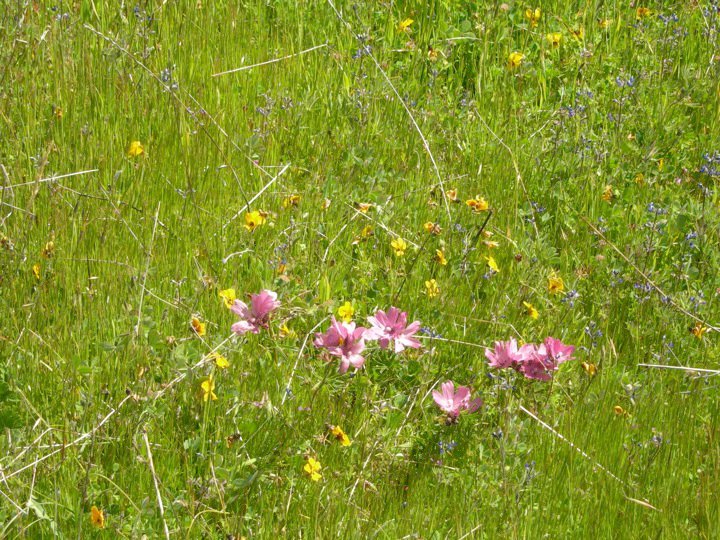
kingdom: Plantae
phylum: Tracheophyta
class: Magnoliopsida
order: Malvales
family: Malvaceae
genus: Sidalcea
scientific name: Sidalcea malviflora
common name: Greek mallow
